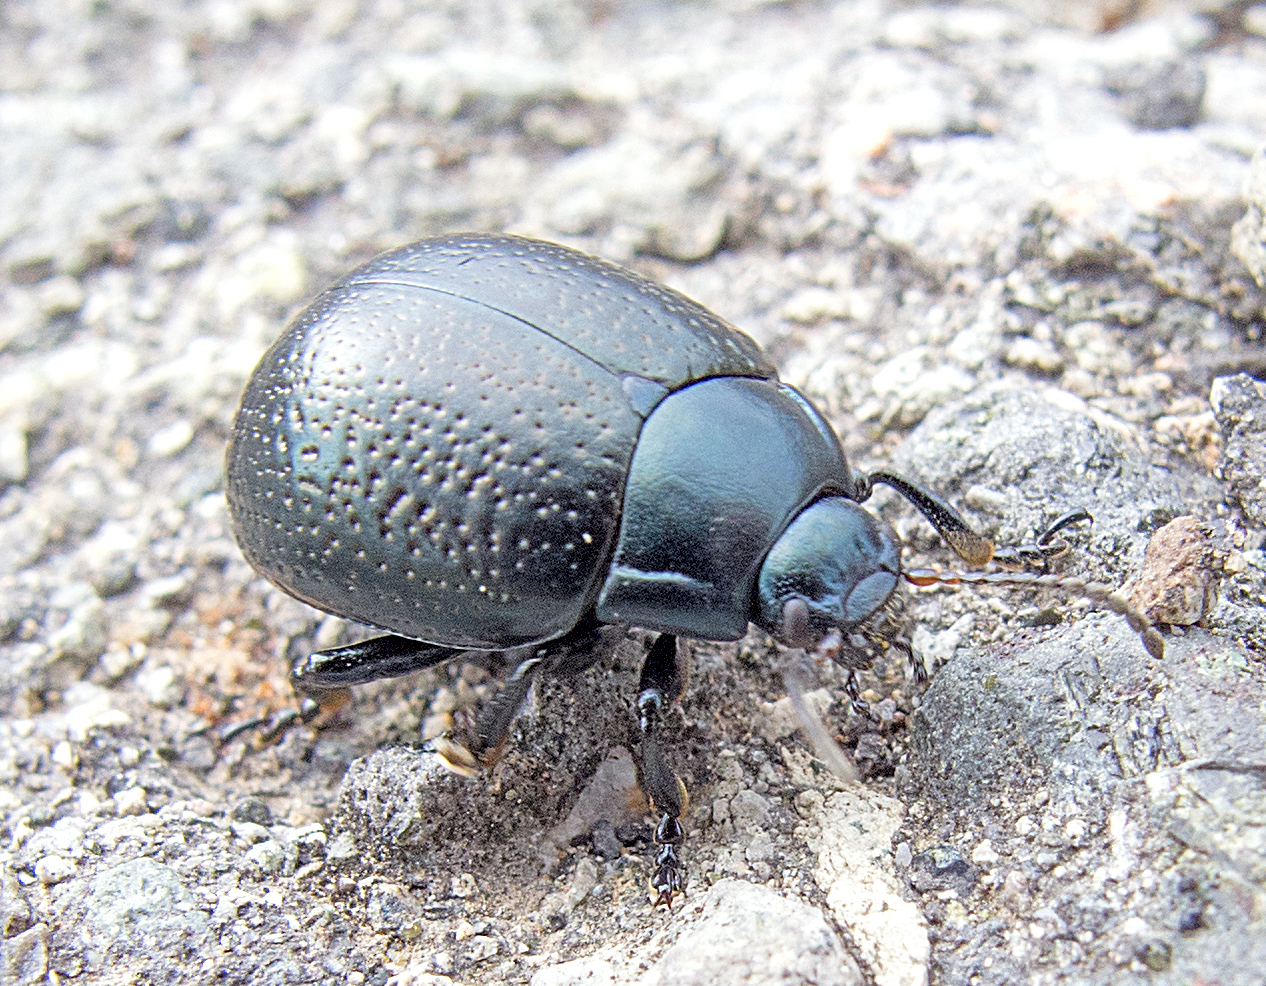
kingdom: Animalia
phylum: Arthropoda
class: Insecta
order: Coleoptera
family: Chrysomelidae
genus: Chrysolina
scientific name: Chrysolina vernalis
